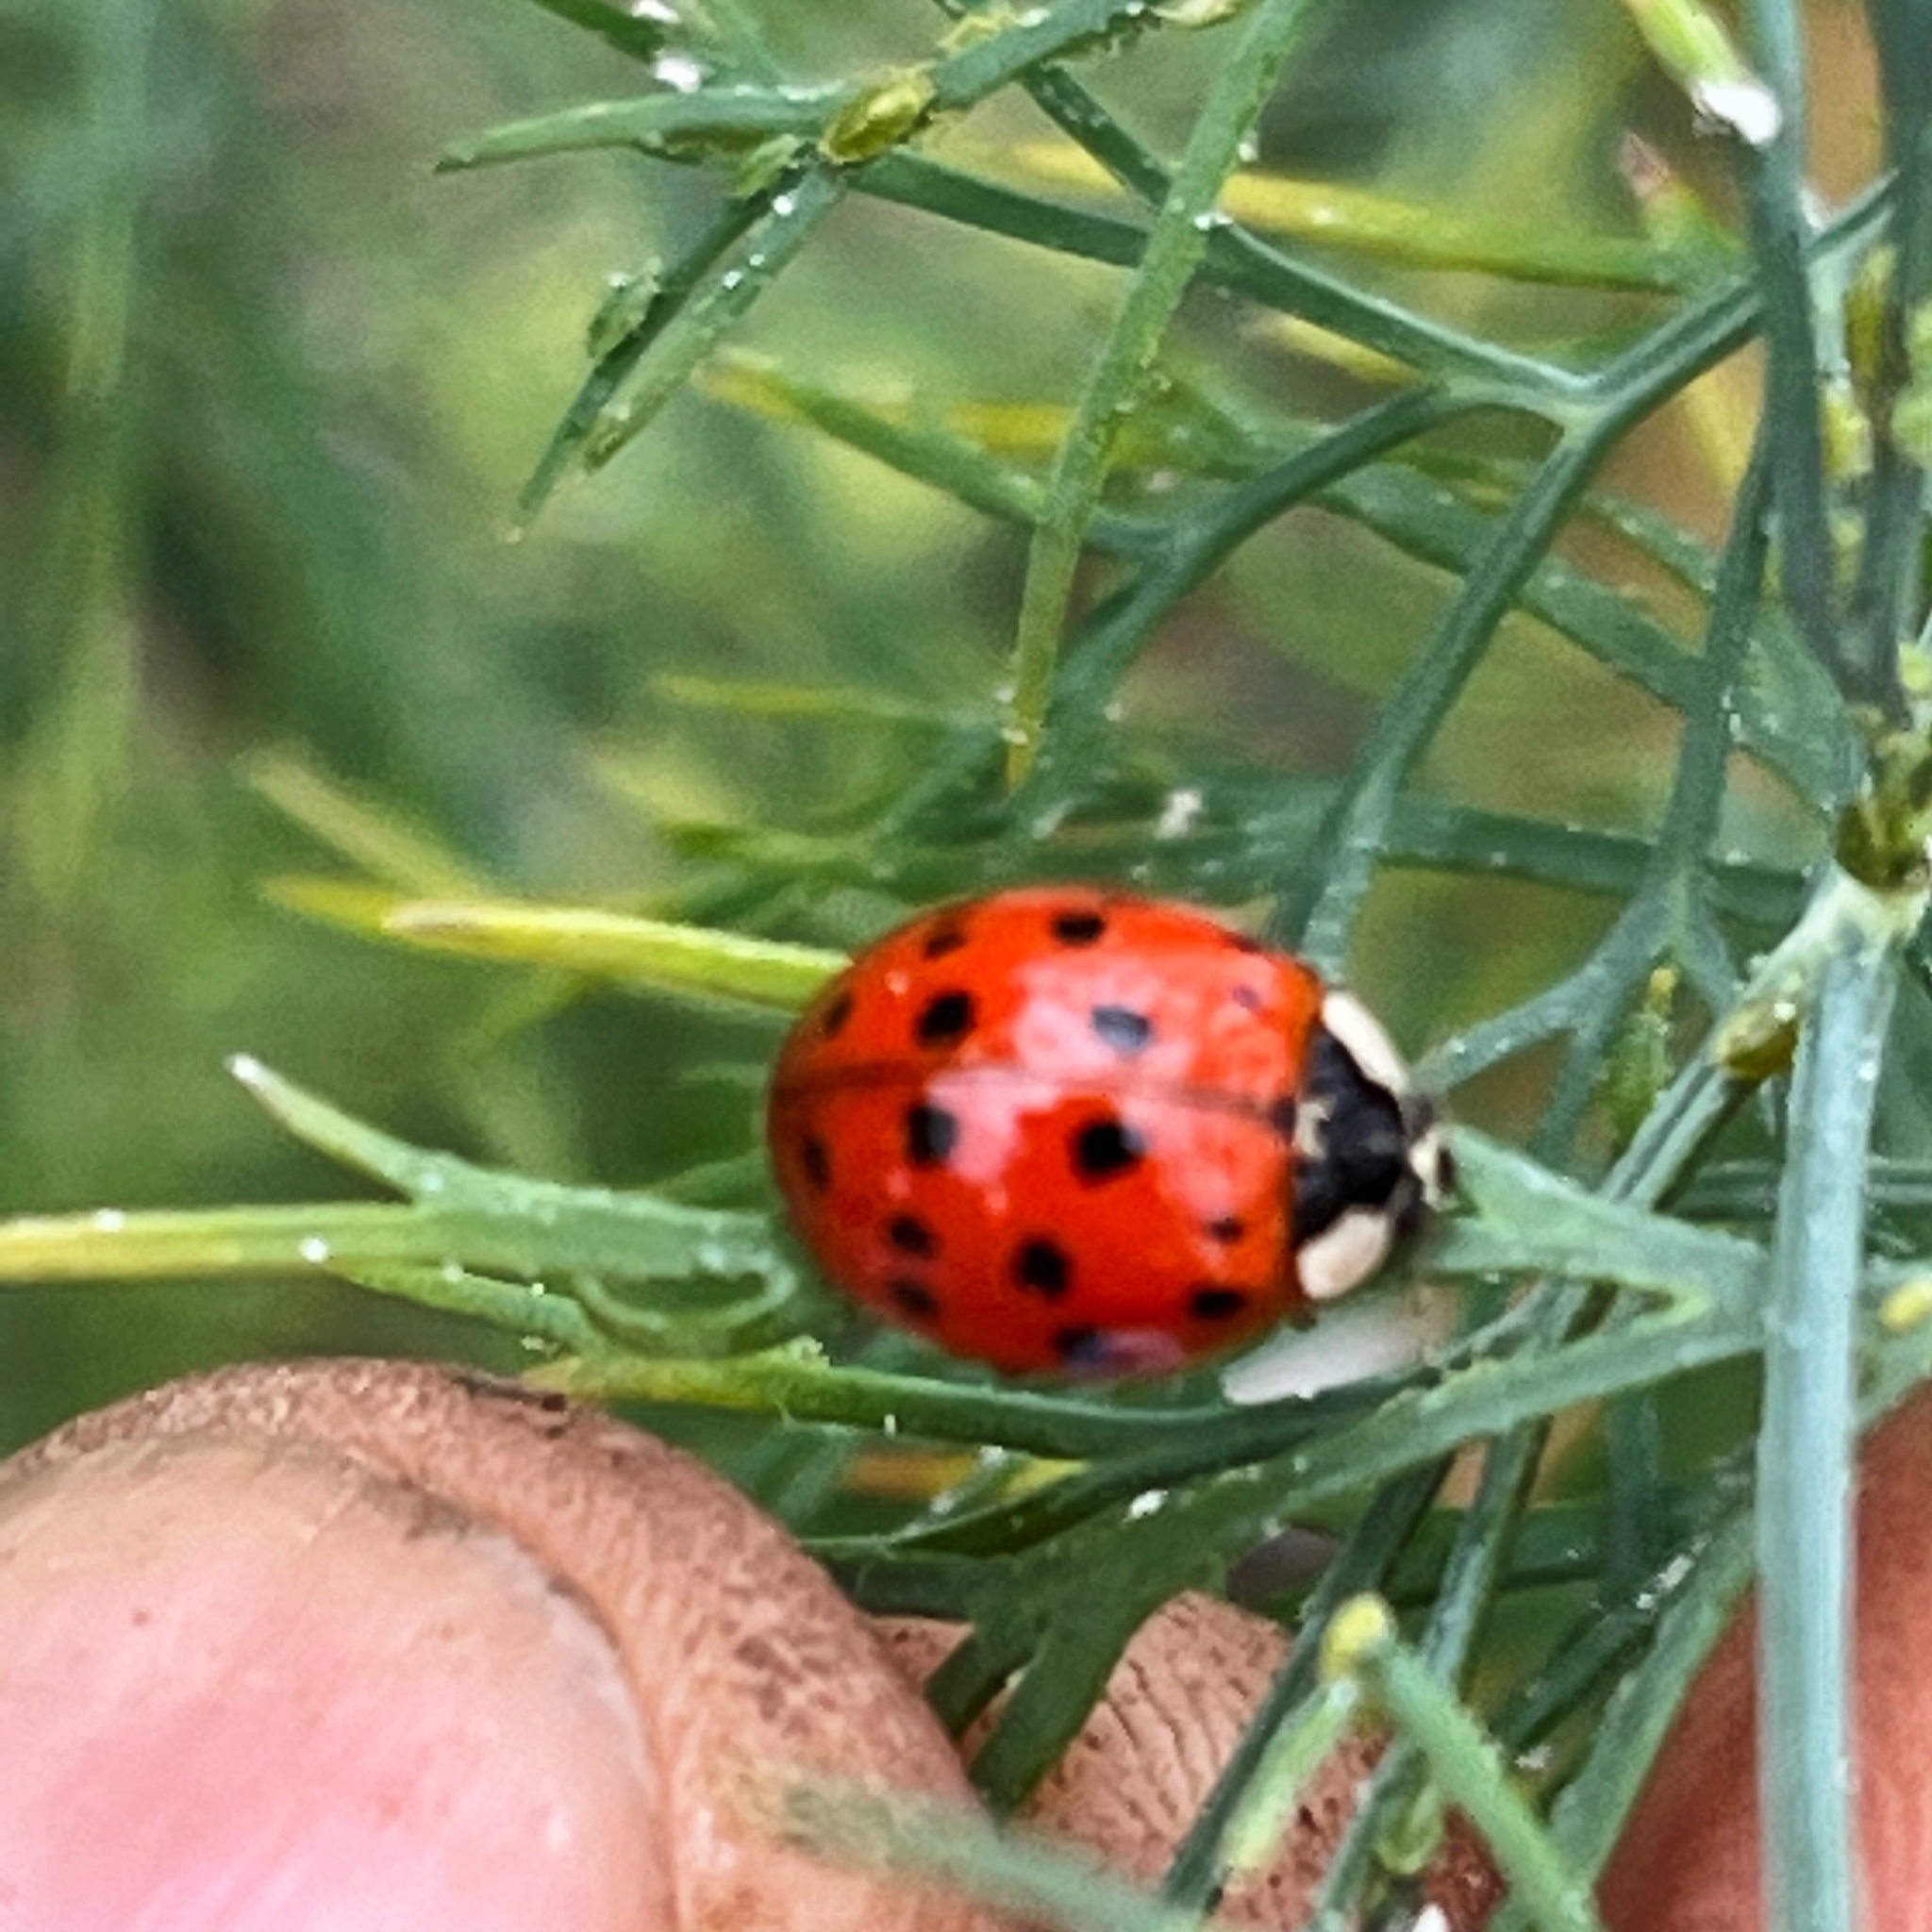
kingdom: Animalia
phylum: Arthropoda
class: Insecta
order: Coleoptera
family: Coccinellidae
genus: Harmonia
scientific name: Harmonia axyridis
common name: Harlequin ladybird
